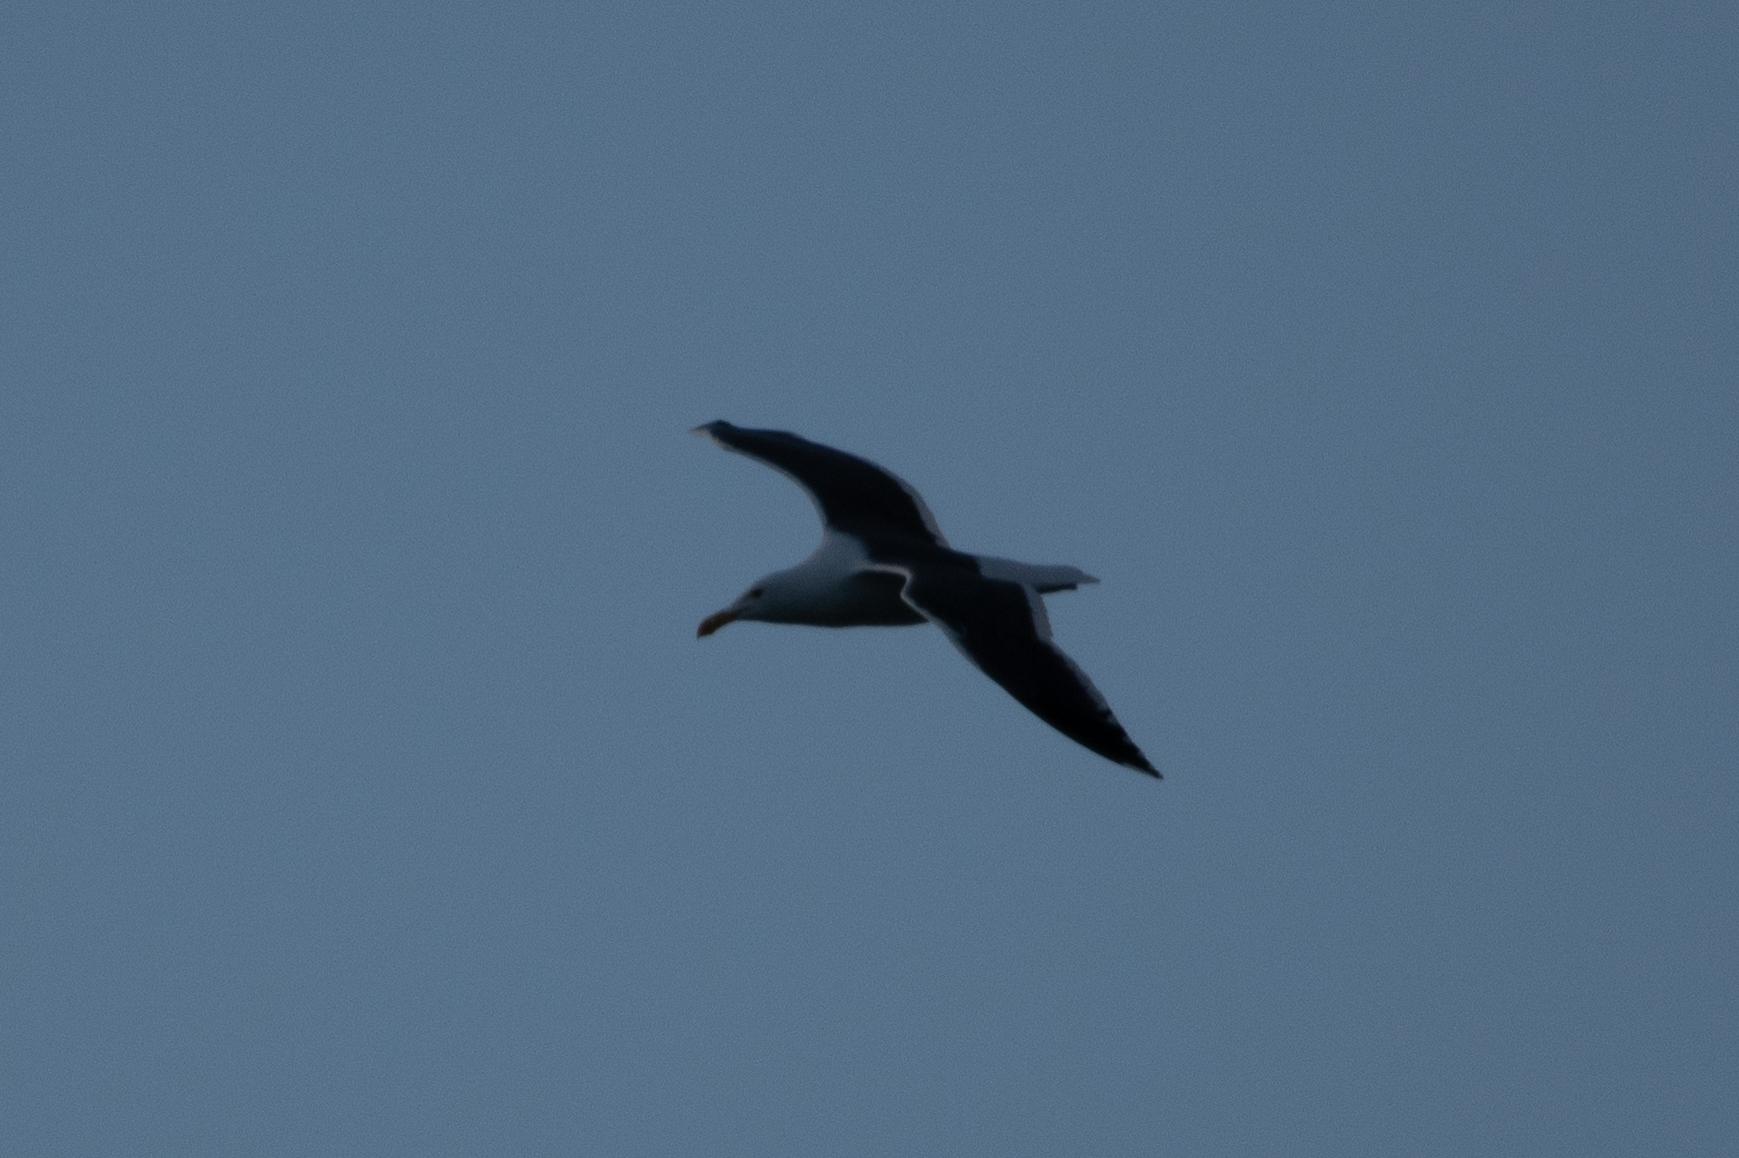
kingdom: Animalia
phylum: Chordata
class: Aves
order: Charadriiformes
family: Laridae
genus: Larus
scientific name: Larus occidentalis
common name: Western gull
